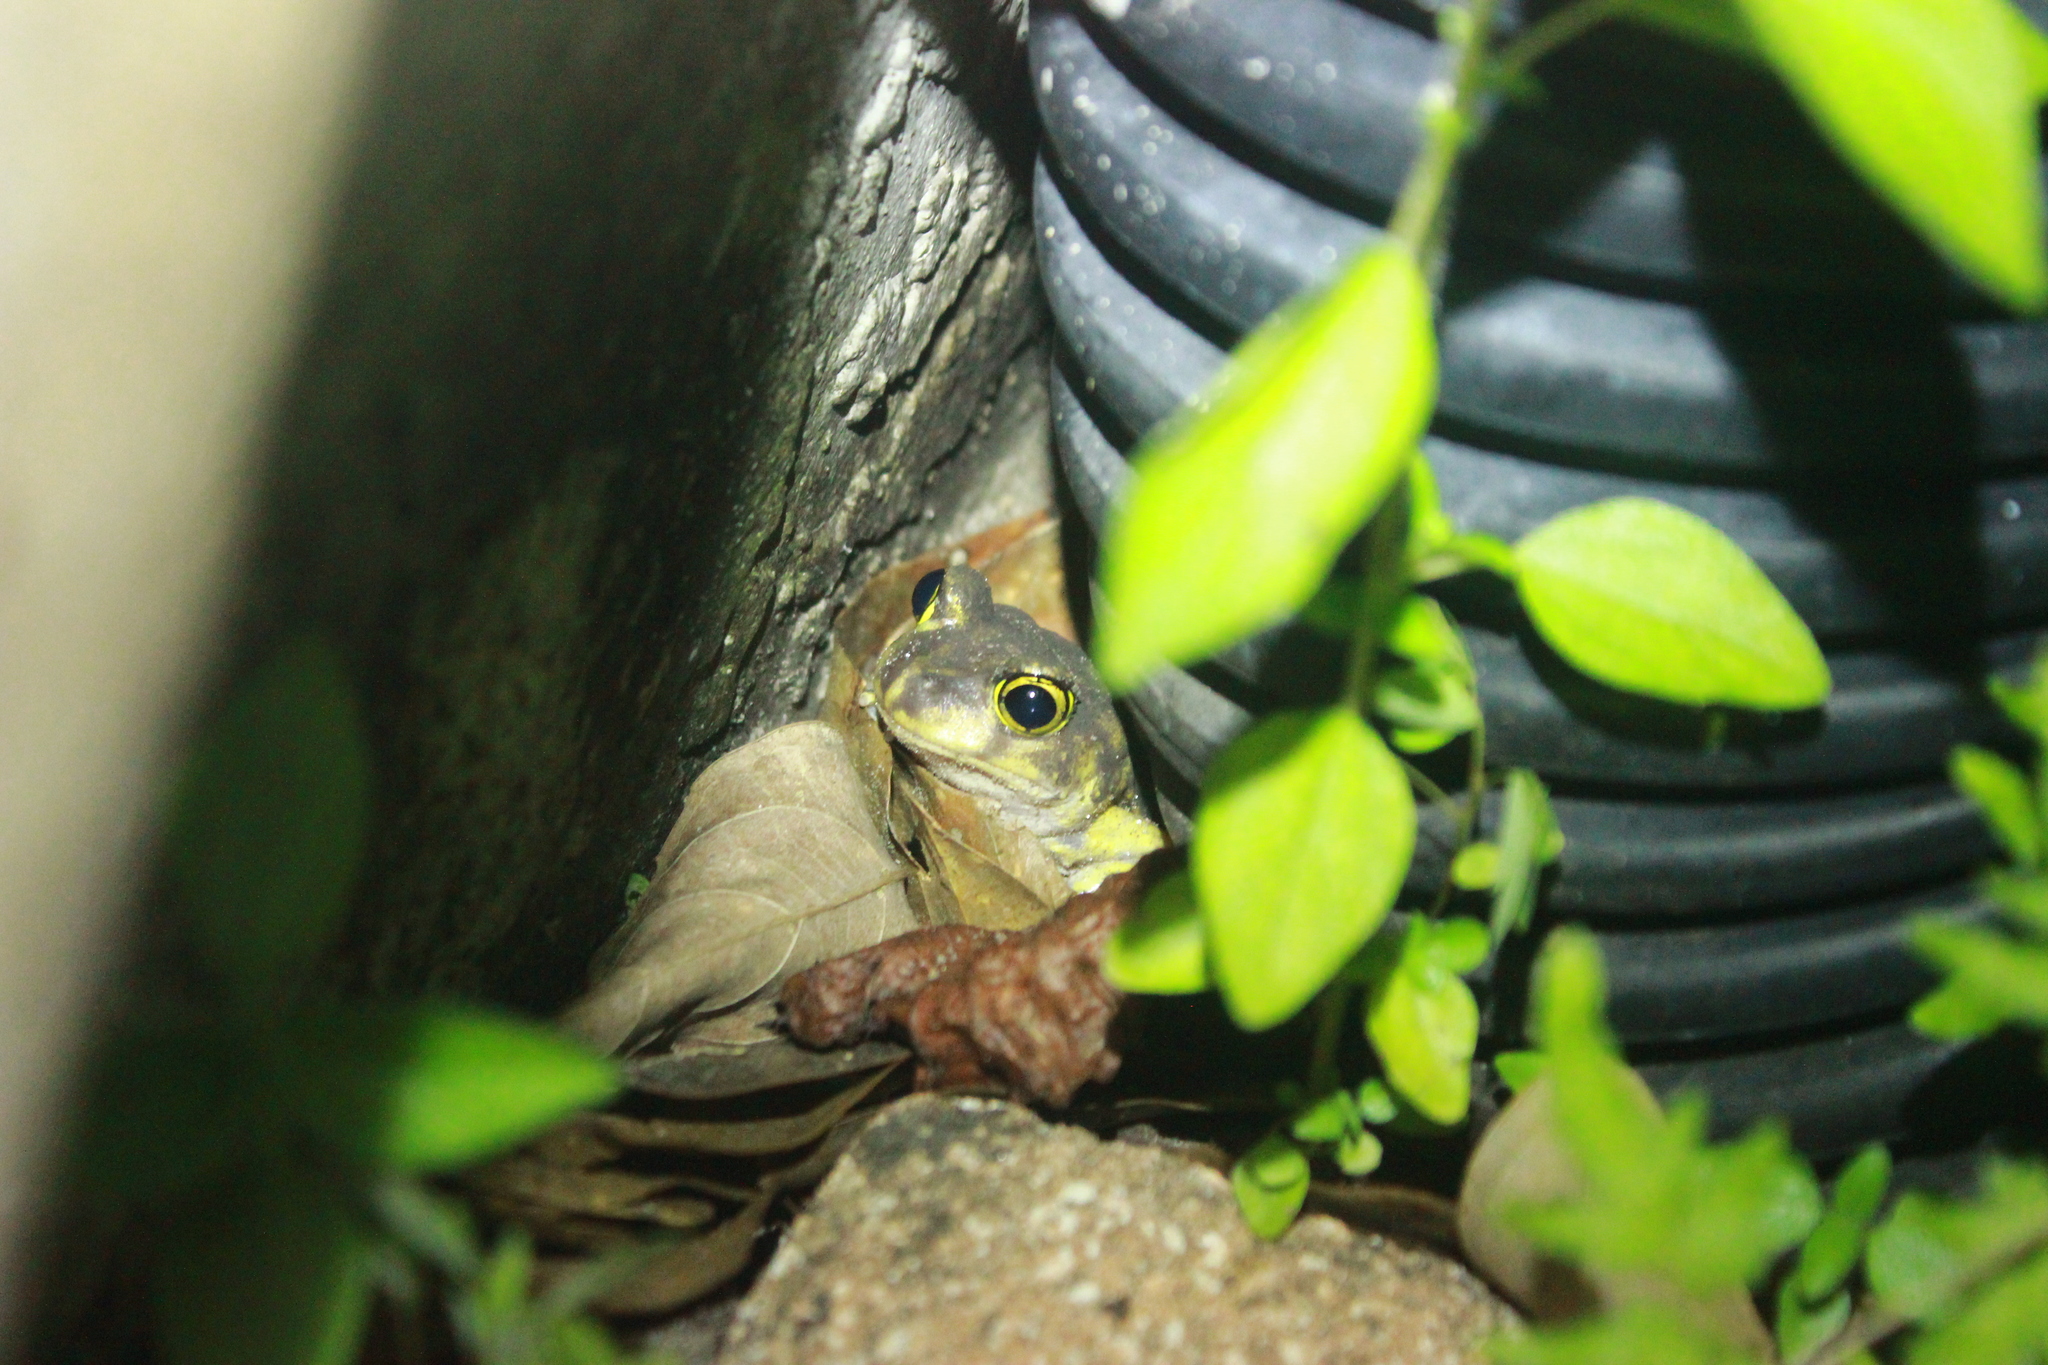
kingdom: Animalia
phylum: Chordata
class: Amphibia
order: Anura
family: Scaphiopodidae
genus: Scaphiopus
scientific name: Scaphiopus holbrookii
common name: Eastern spadefoot toad
